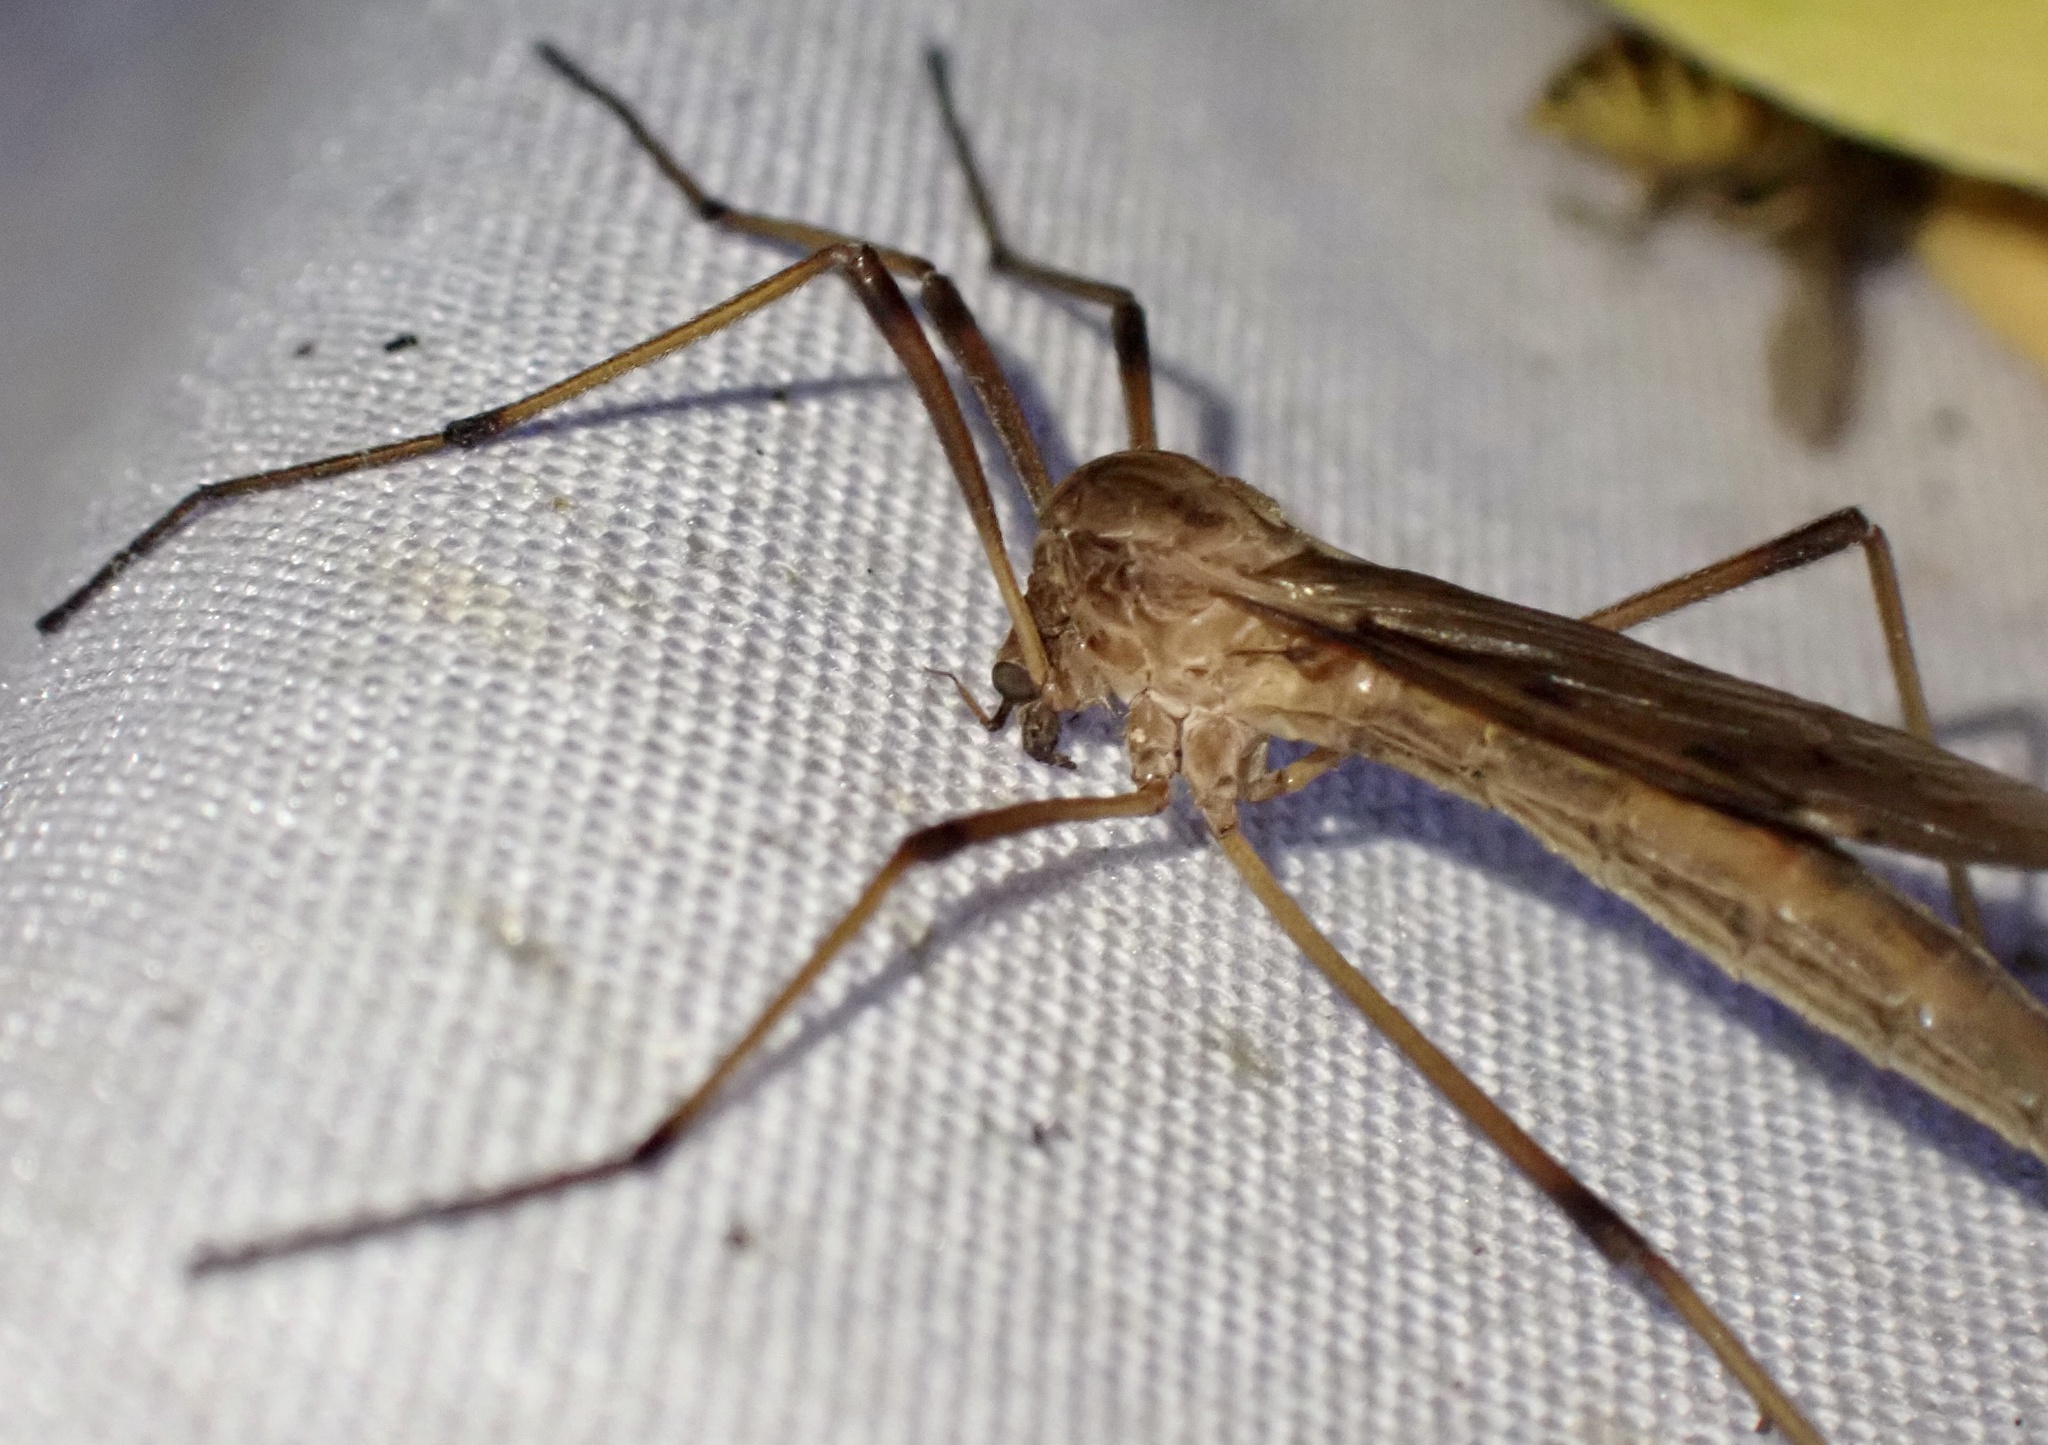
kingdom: Animalia
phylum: Arthropoda
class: Insecta
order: Diptera
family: Limoniidae
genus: Eutonia
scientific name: Eutonia barbipes
